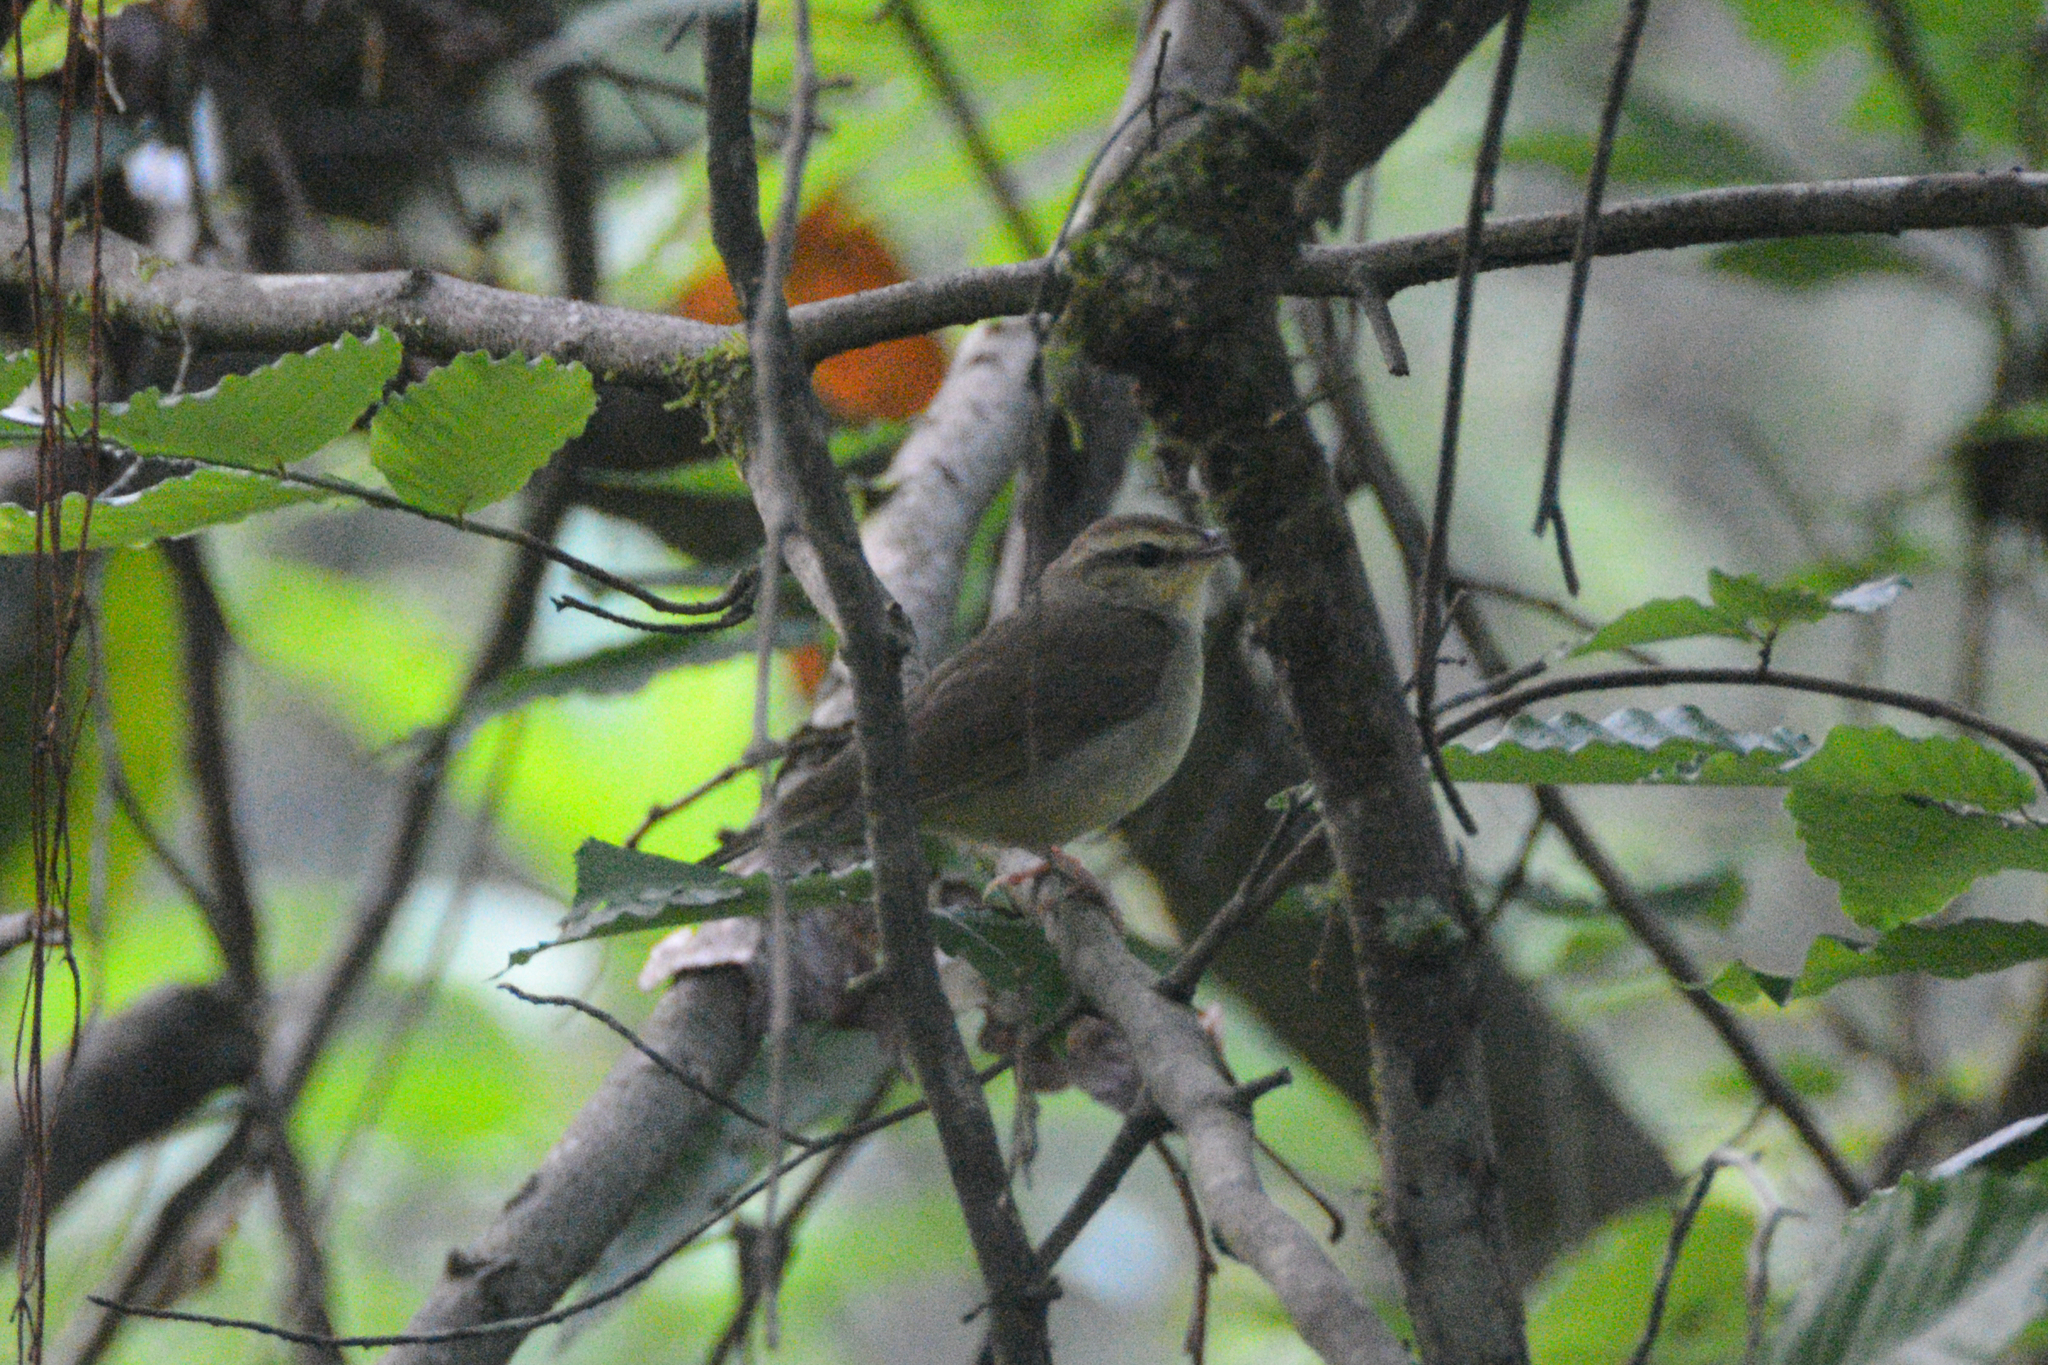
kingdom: Animalia
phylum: Chordata
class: Aves
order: Passeriformes
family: Parulidae
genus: Limnothlypis
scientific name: Limnothlypis swainsonii
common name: Swainson's warbler
